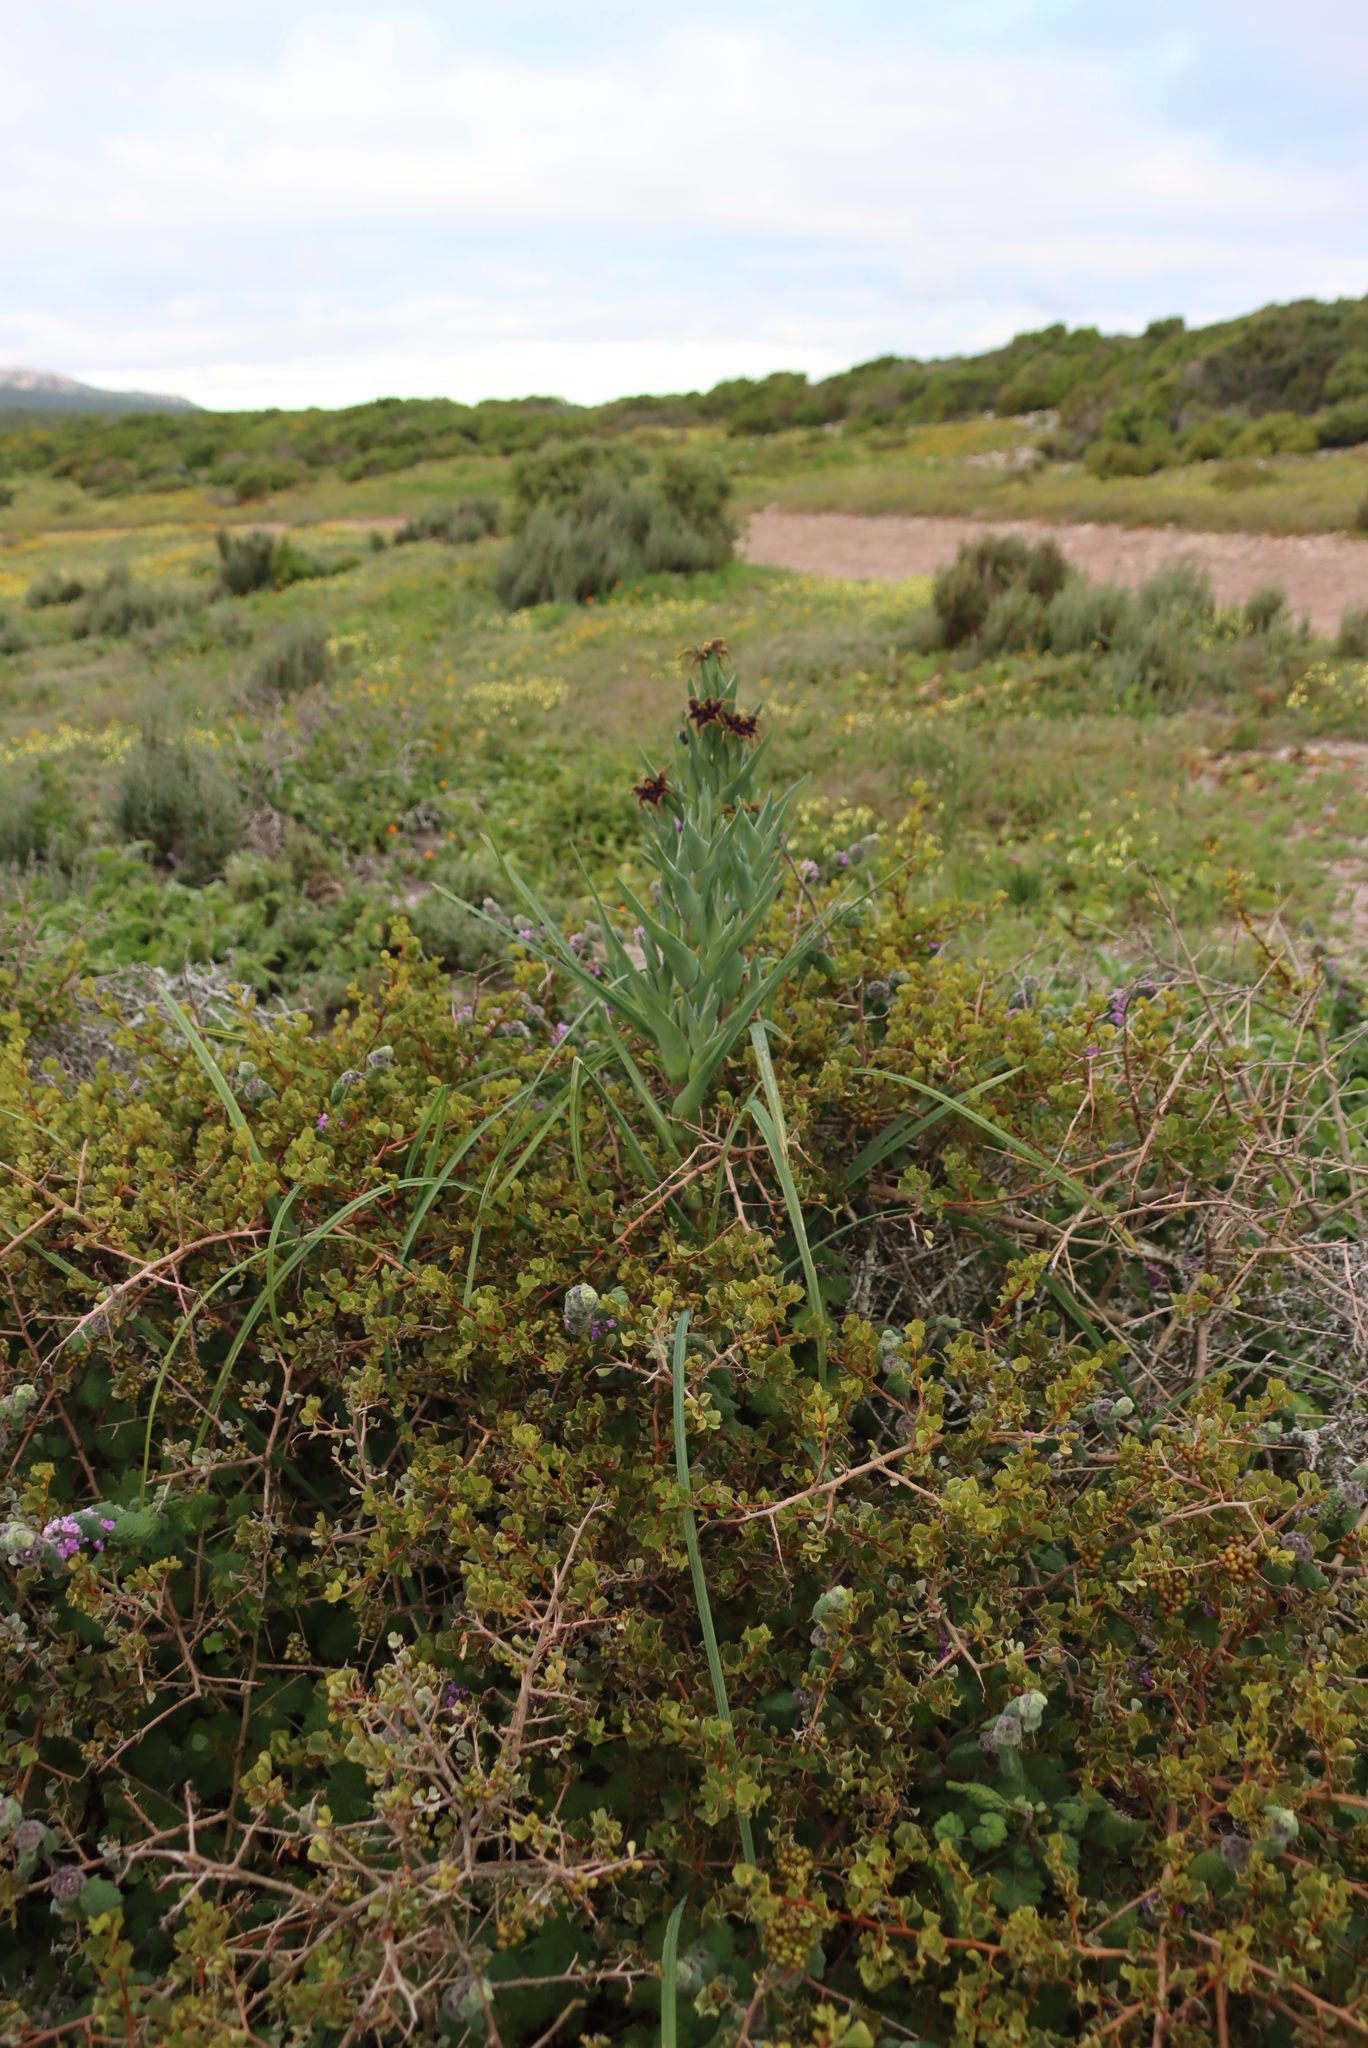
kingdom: Plantae
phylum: Tracheophyta
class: Liliopsida
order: Asparagales
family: Iridaceae
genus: Ferraria
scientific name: Ferraria crispa
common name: Black-flag
